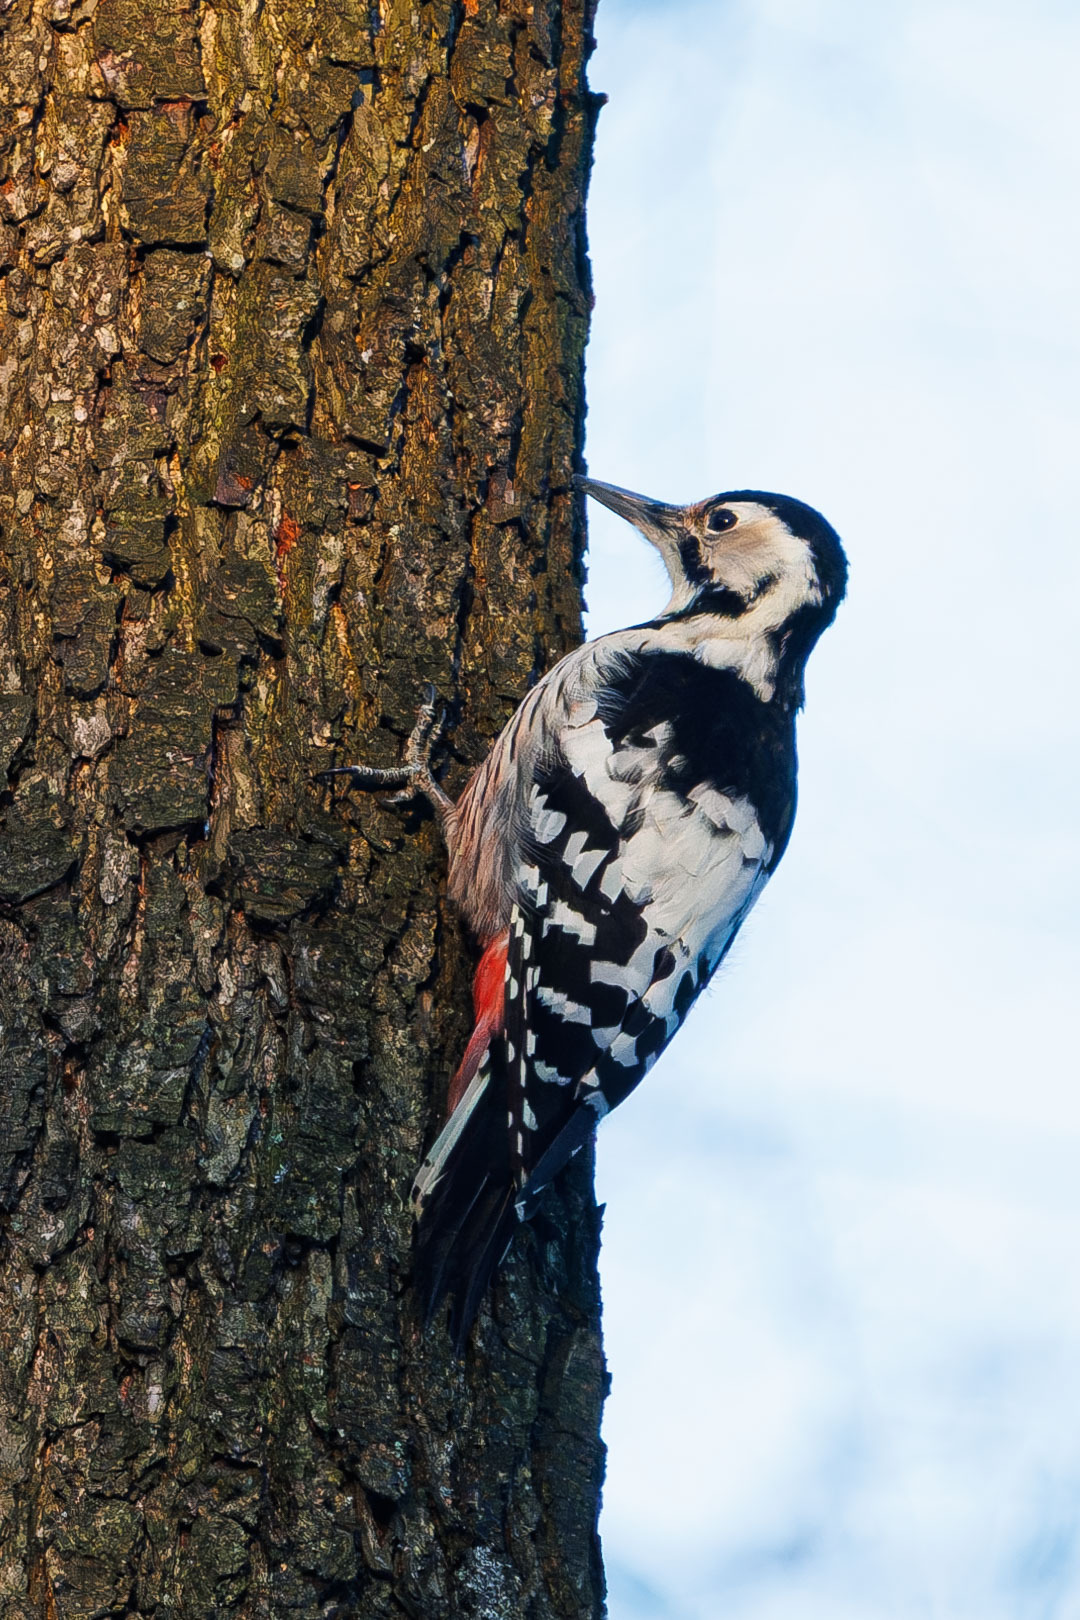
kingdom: Animalia
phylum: Chordata
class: Aves
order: Piciformes
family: Picidae
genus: Dendrocopos
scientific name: Dendrocopos leucotos
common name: White-backed woodpecker
